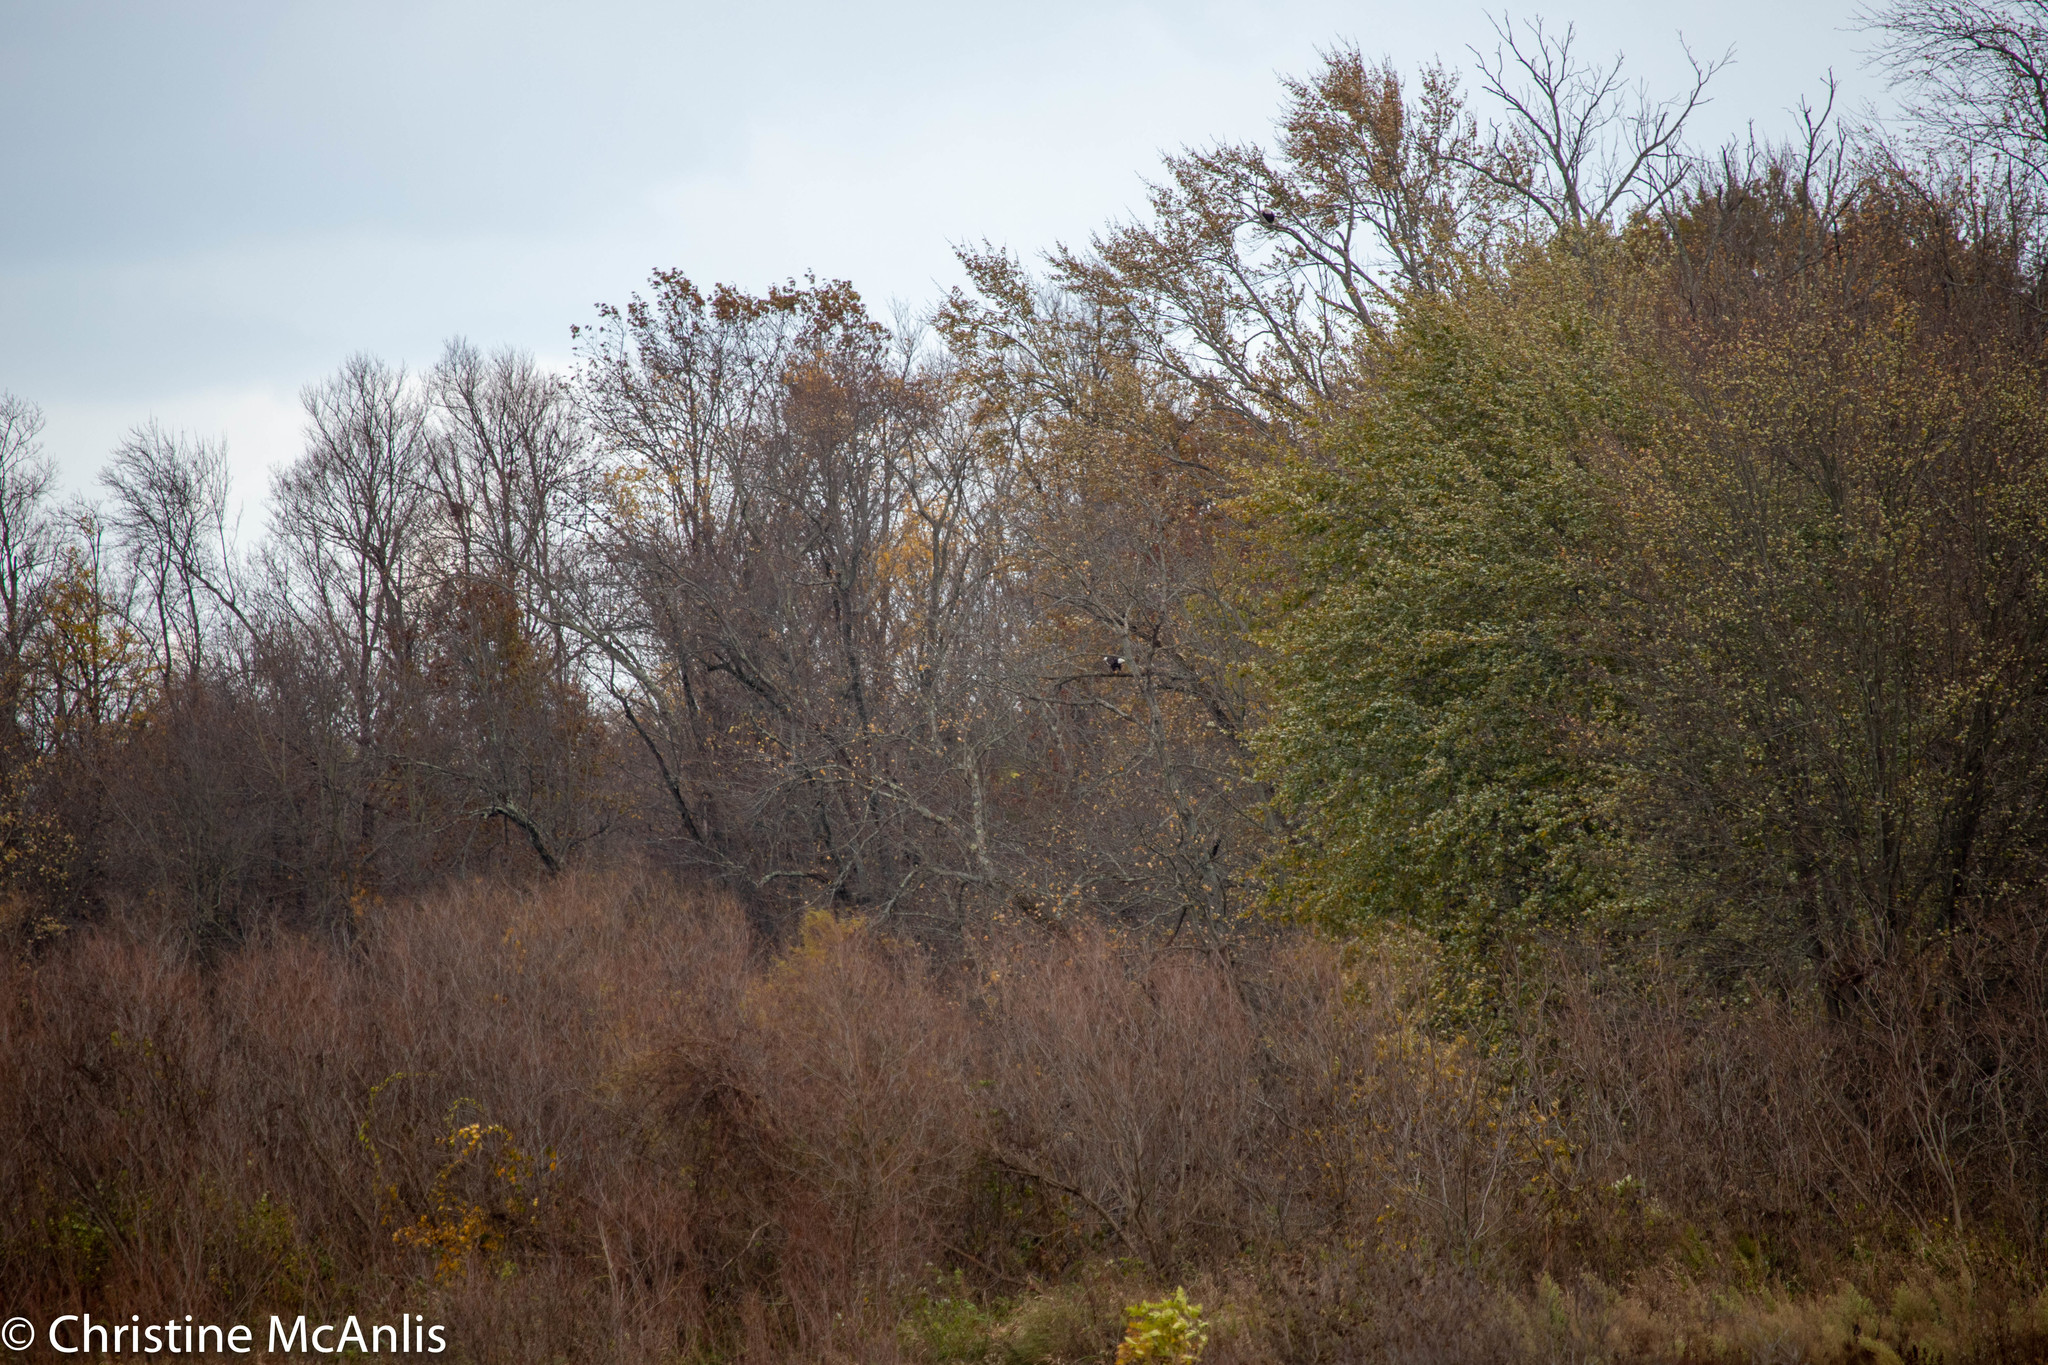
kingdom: Animalia
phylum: Chordata
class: Aves
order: Accipitriformes
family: Accipitridae
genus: Haliaeetus
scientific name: Haliaeetus leucocephalus
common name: Bald eagle
